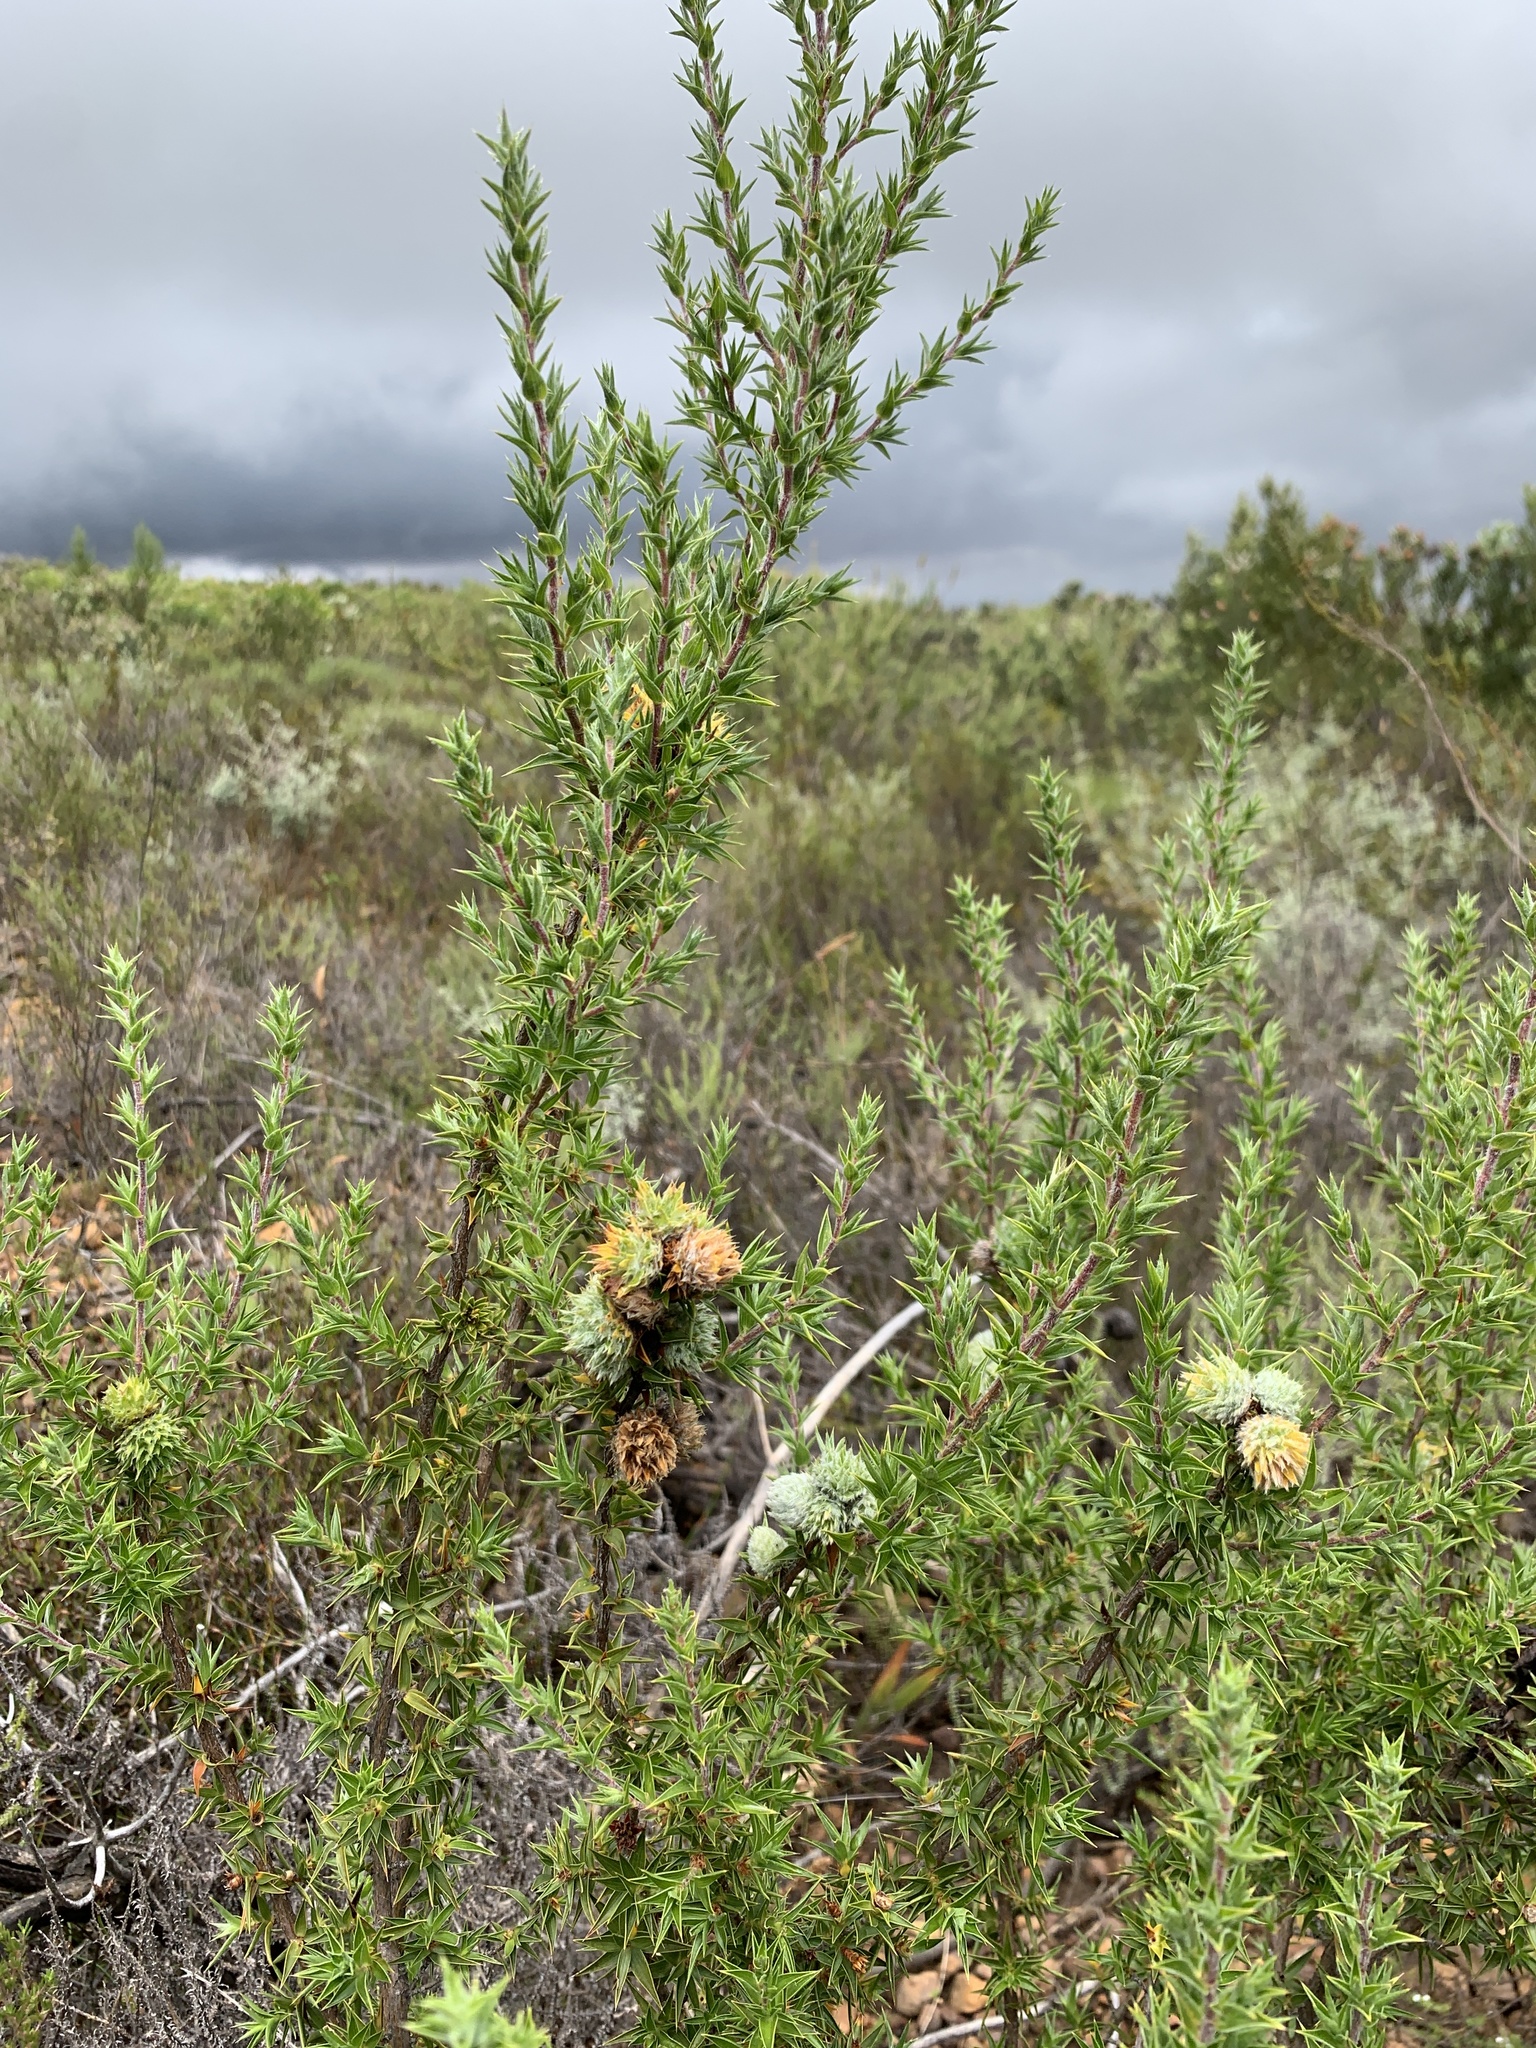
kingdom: Plantae
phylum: Tracheophyta
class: Magnoliopsida
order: Rosales
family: Rosaceae
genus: Cliffortia
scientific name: Cliffortia ruscifolia
